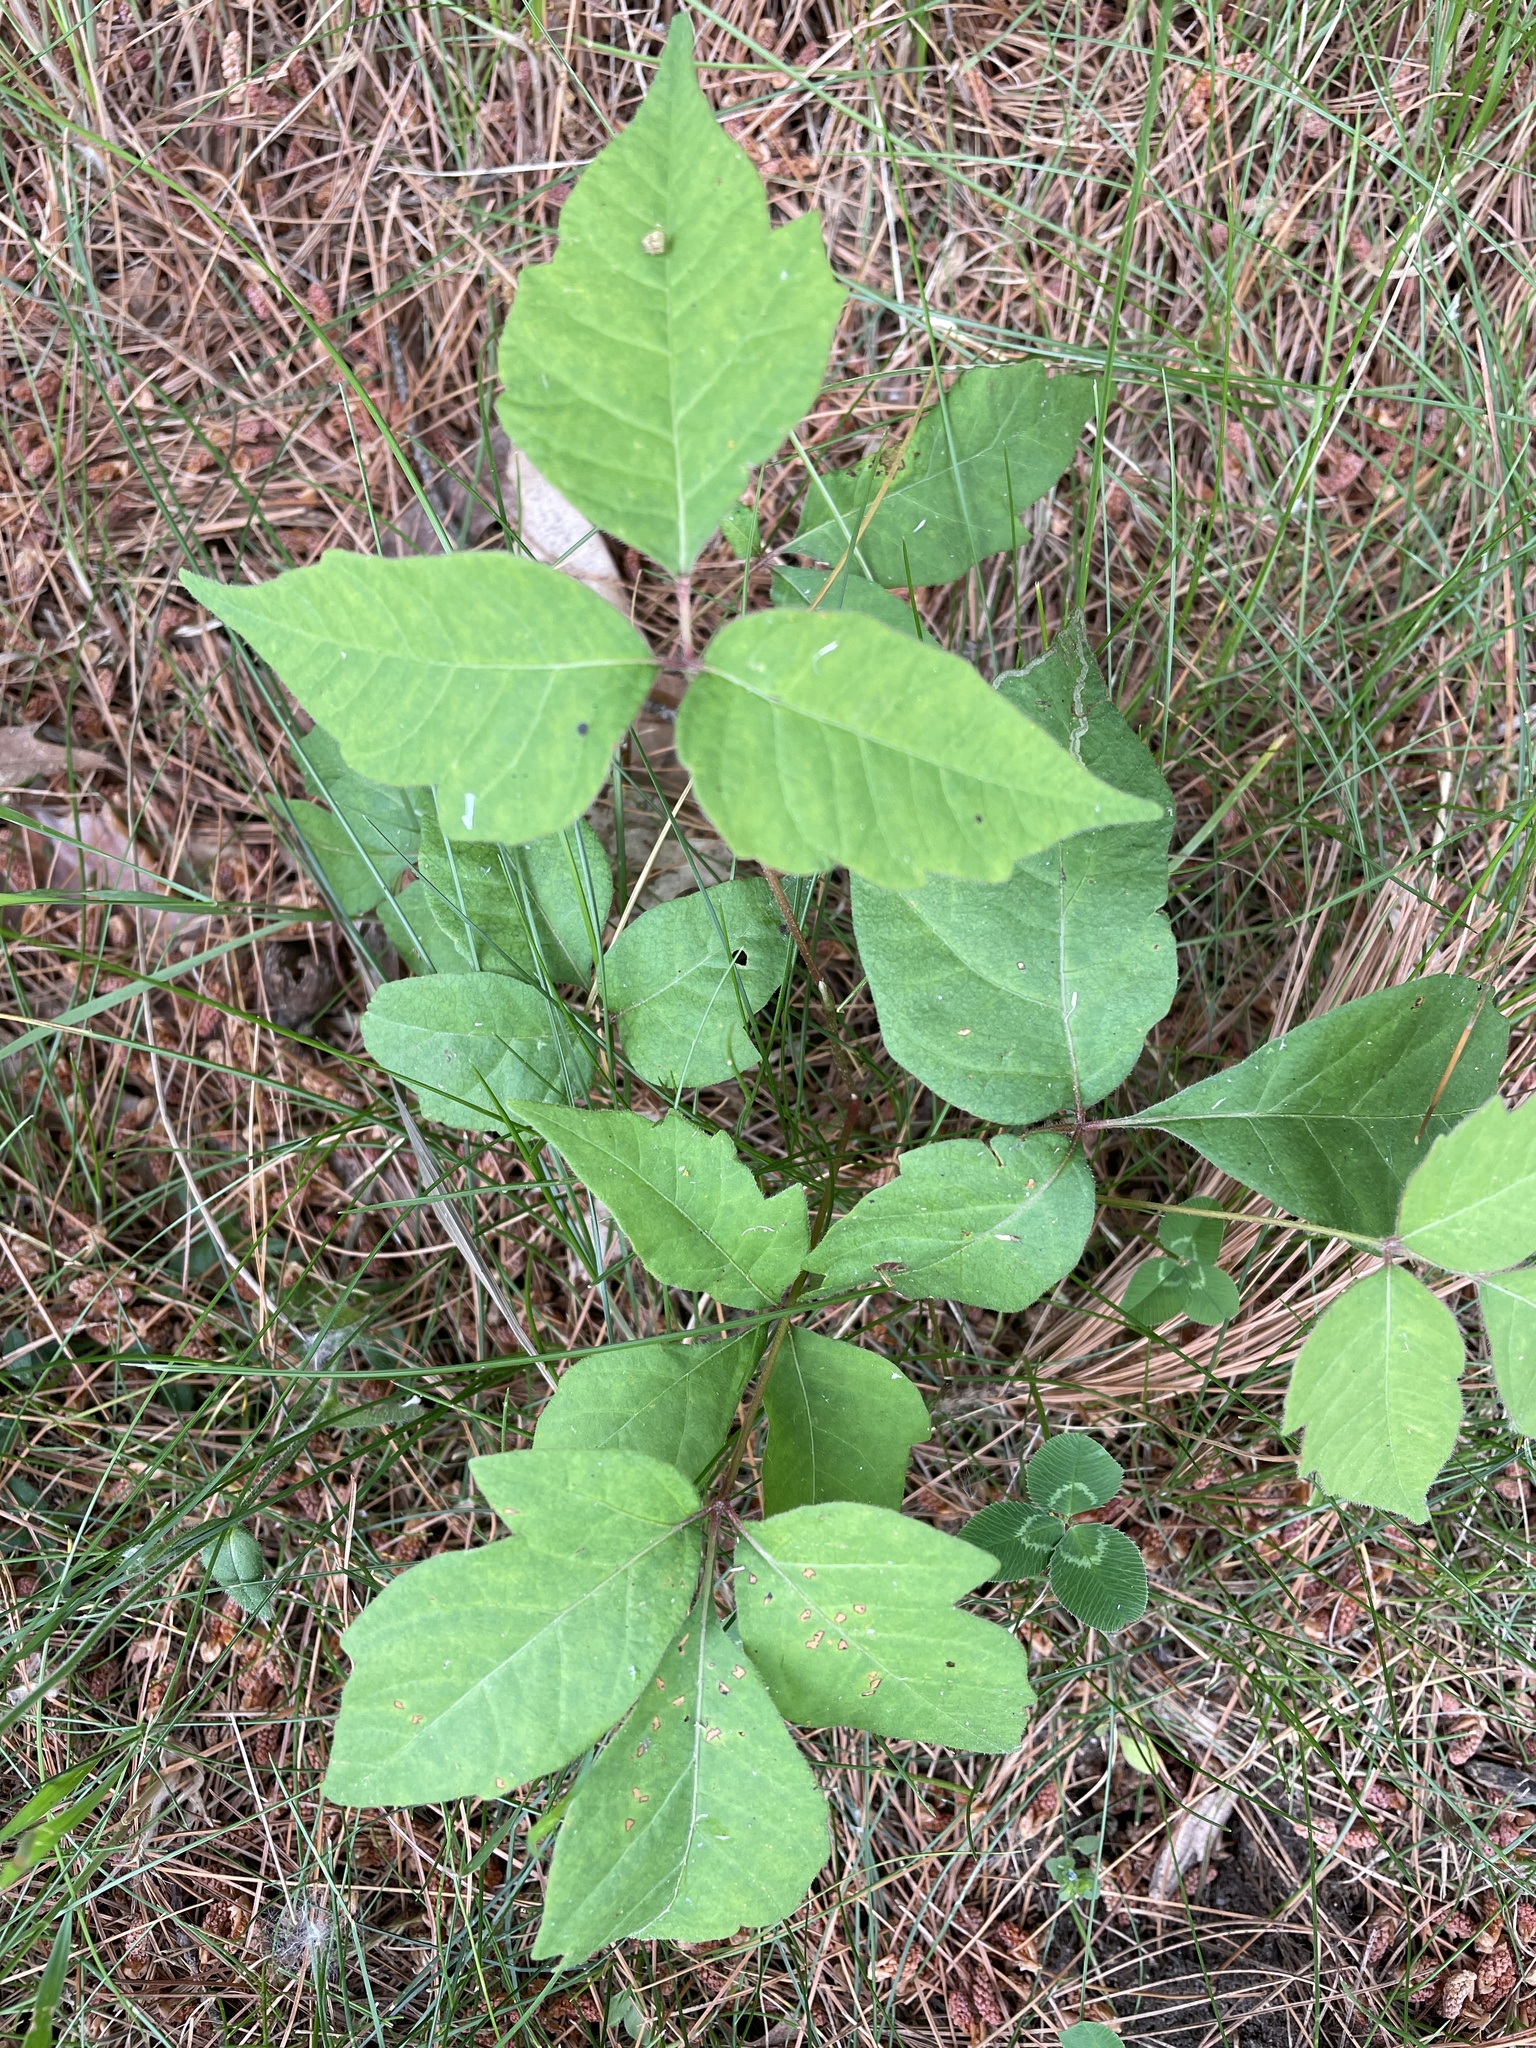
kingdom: Plantae
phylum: Tracheophyta
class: Magnoliopsida
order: Sapindales
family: Anacardiaceae
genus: Toxicodendron
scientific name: Toxicodendron radicans
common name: Poison ivy
